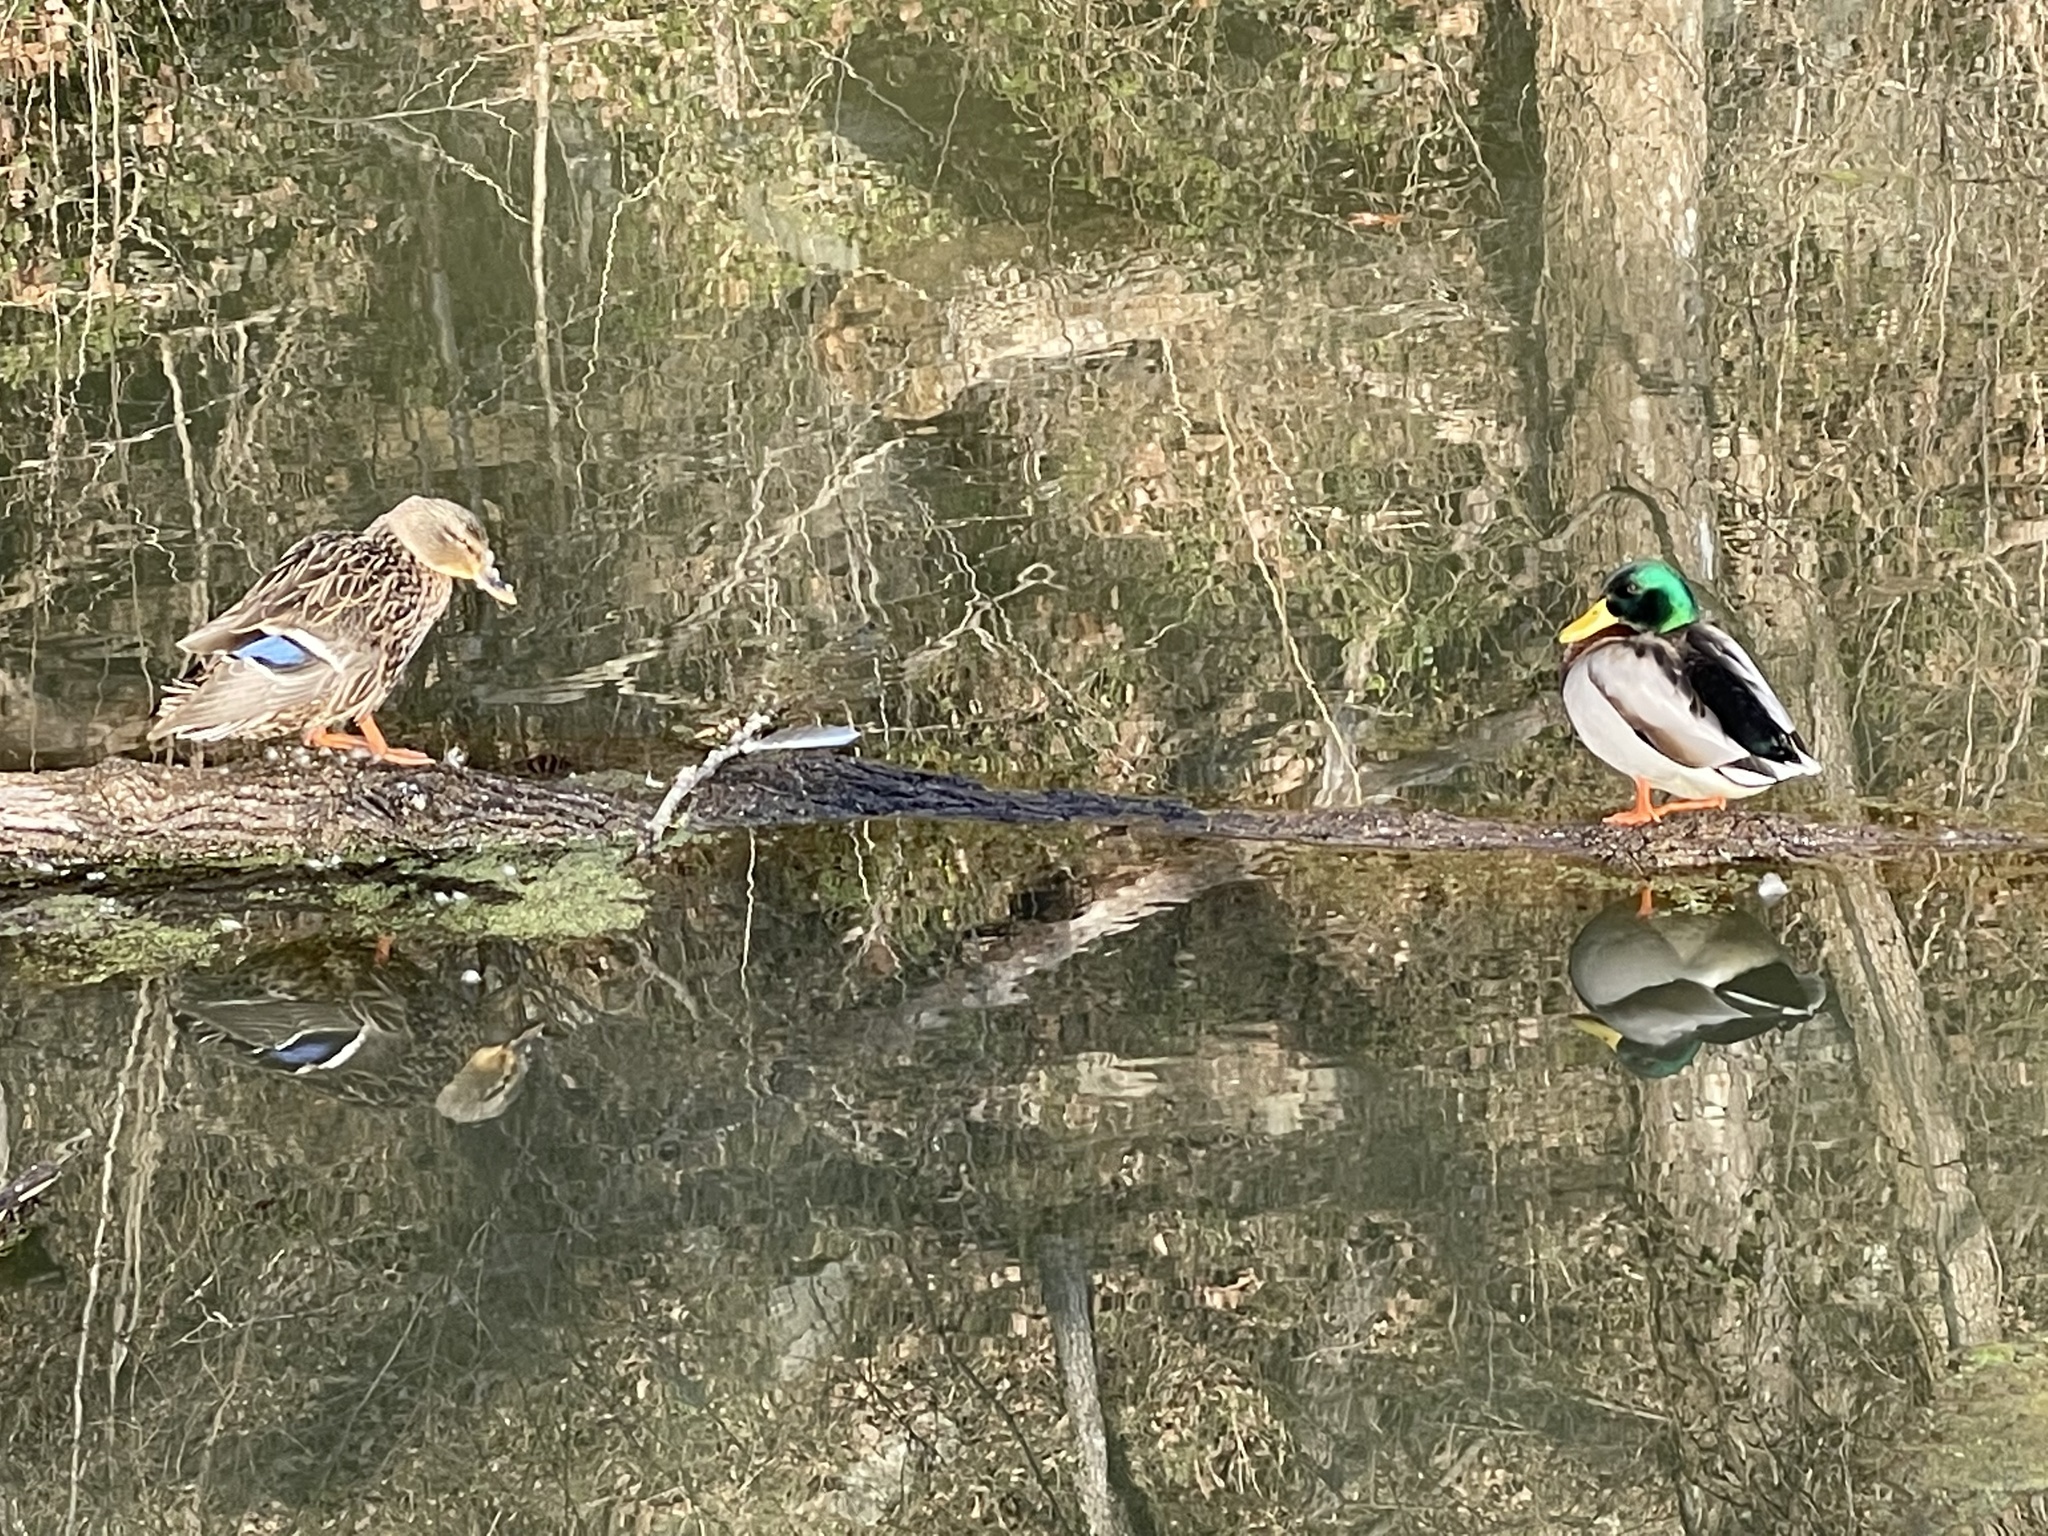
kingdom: Animalia
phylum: Chordata
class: Aves
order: Anseriformes
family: Anatidae
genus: Anas
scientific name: Anas platyrhynchos
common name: Mallard
